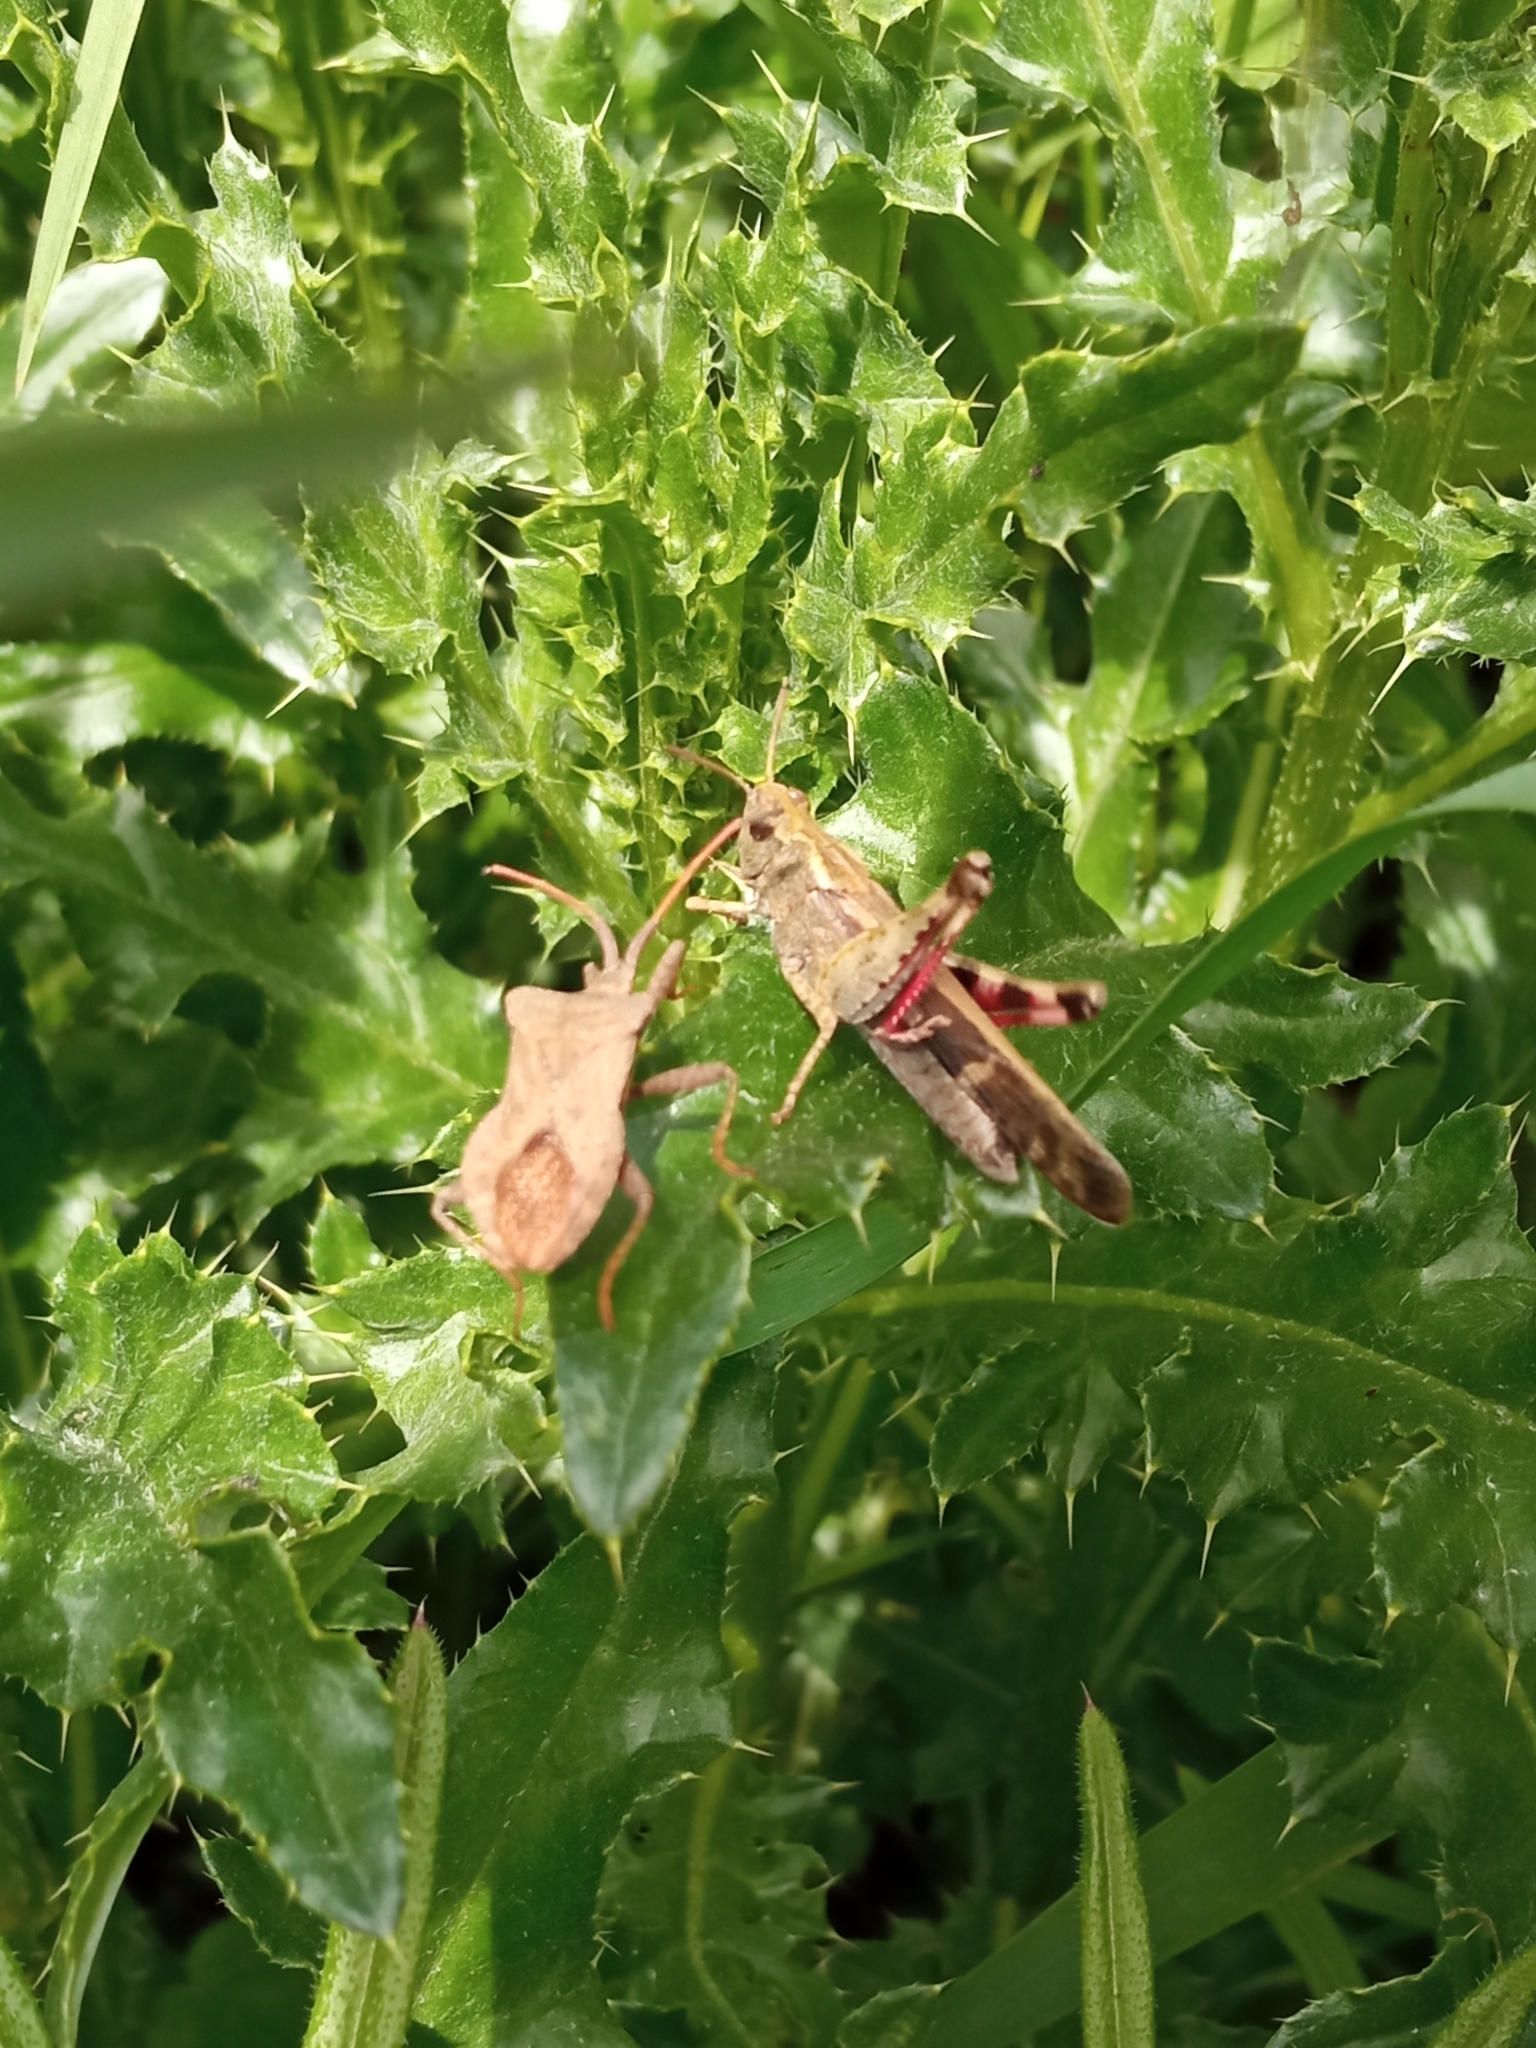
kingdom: Animalia
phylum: Arthropoda
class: Insecta
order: Hemiptera
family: Coreidae
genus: Coreus
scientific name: Coreus marginatus
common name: Dock bug
